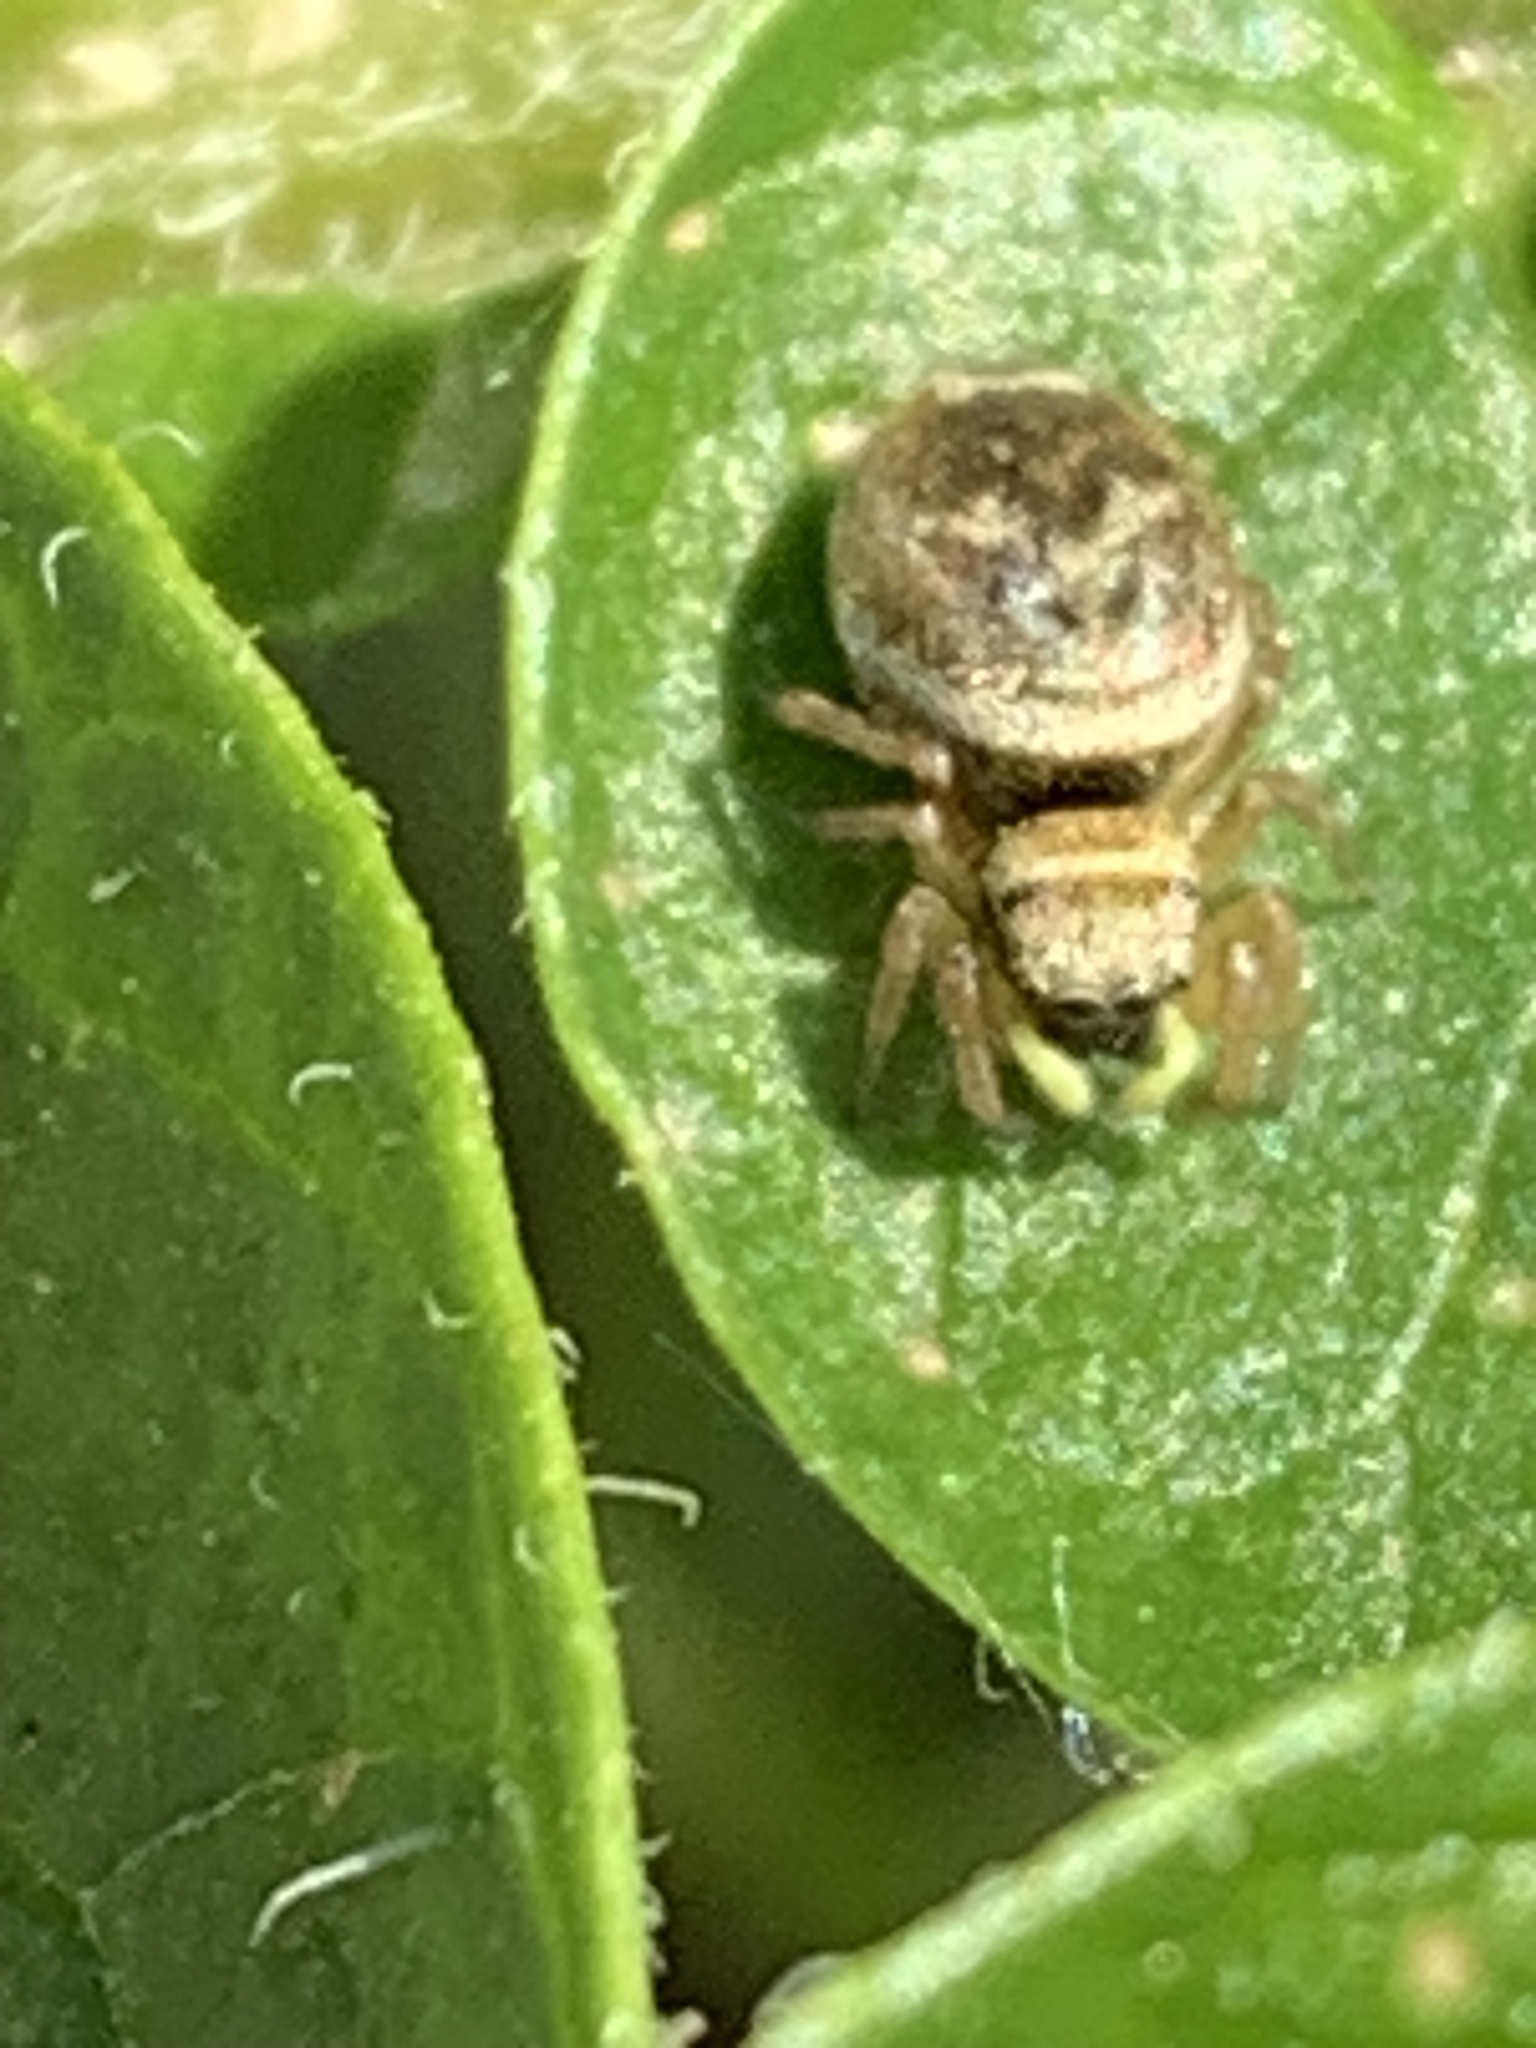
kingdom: Animalia
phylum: Arthropoda
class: Arachnida
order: Araneae
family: Salticidae
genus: Heliophanus
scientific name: Heliophanus tribulosus
